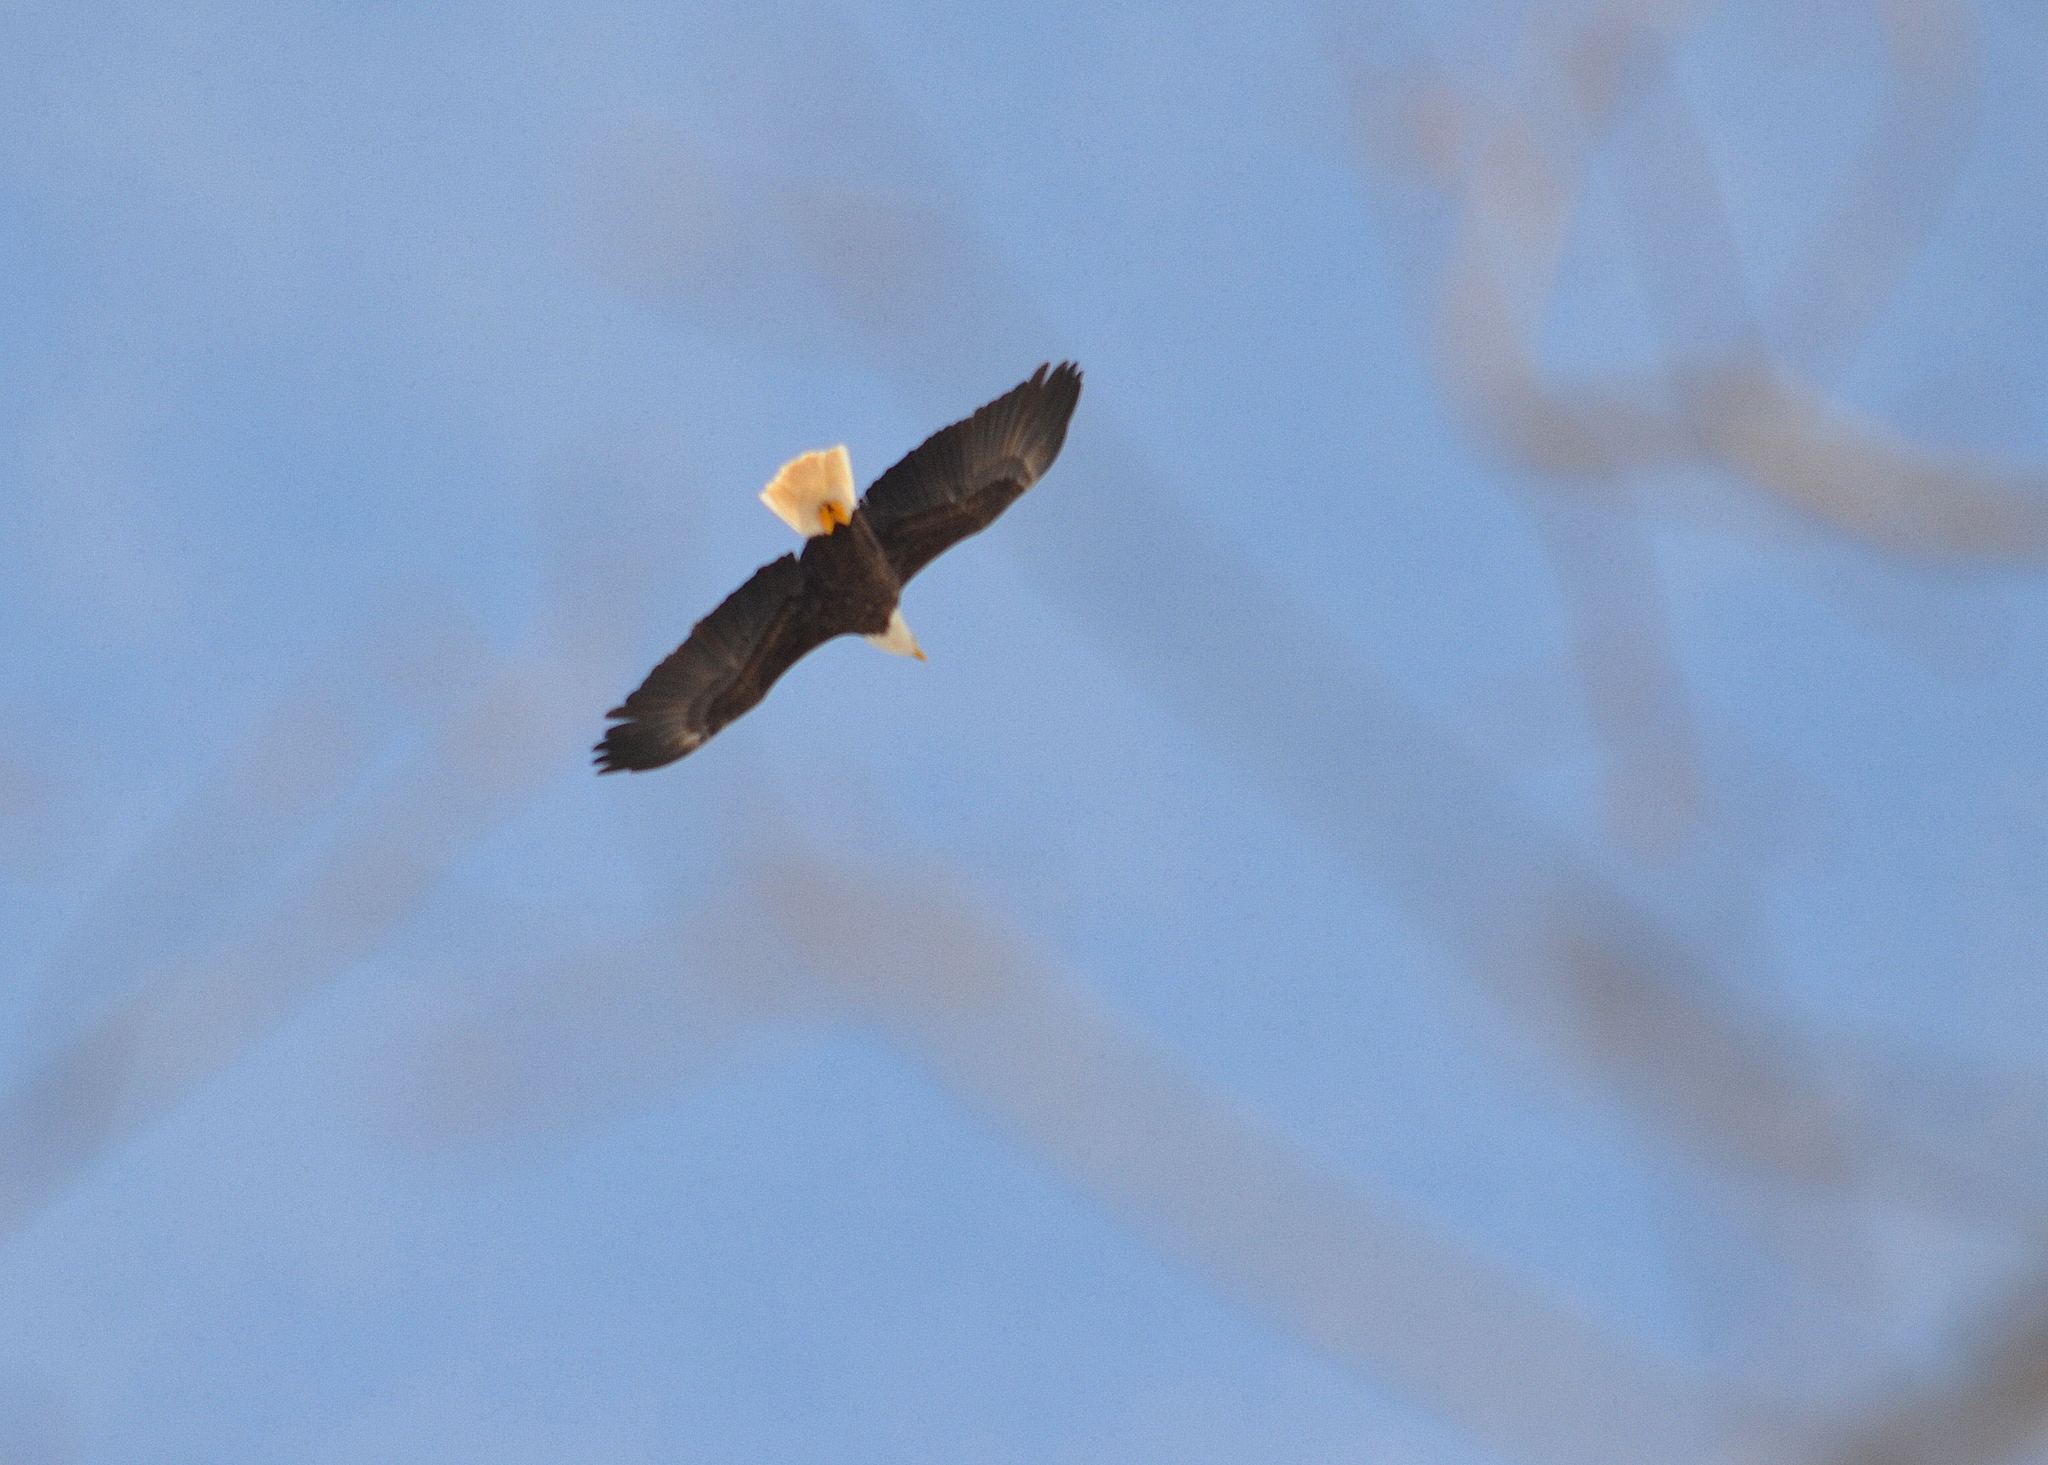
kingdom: Animalia
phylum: Chordata
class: Aves
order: Accipitriformes
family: Accipitridae
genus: Haliaeetus
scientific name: Haliaeetus leucocephalus
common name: Bald eagle
